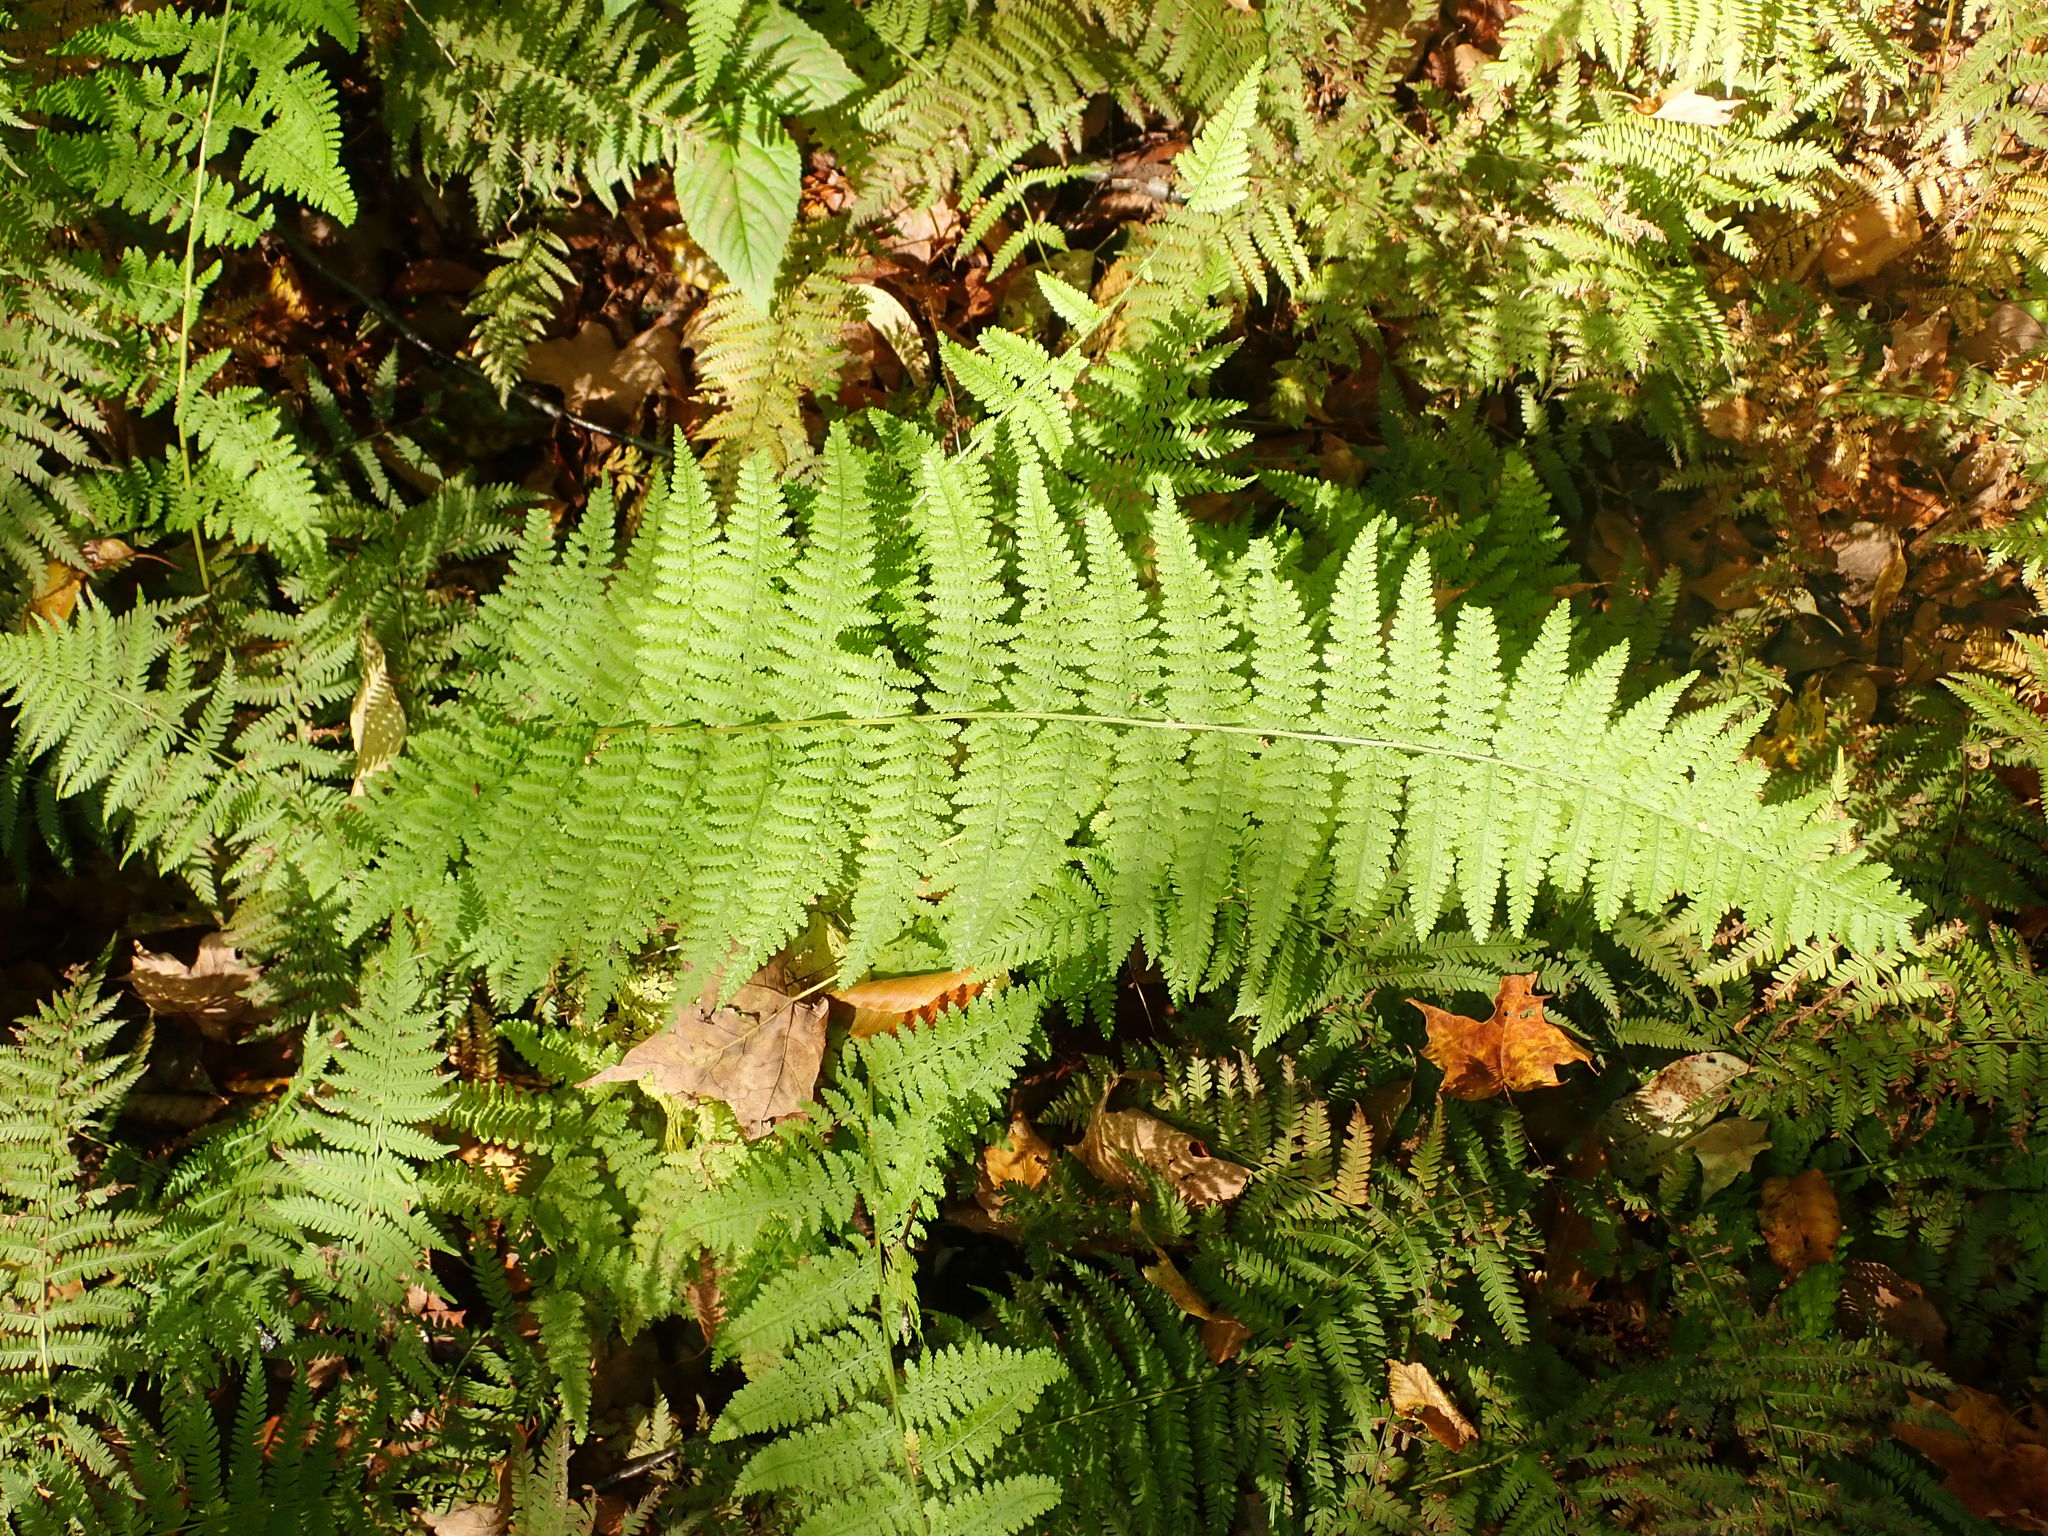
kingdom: Plantae
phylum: Tracheophyta
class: Polypodiopsida
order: Polypodiales
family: Dennstaedtiaceae
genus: Sitobolium
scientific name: Sitobolium punctilobum
